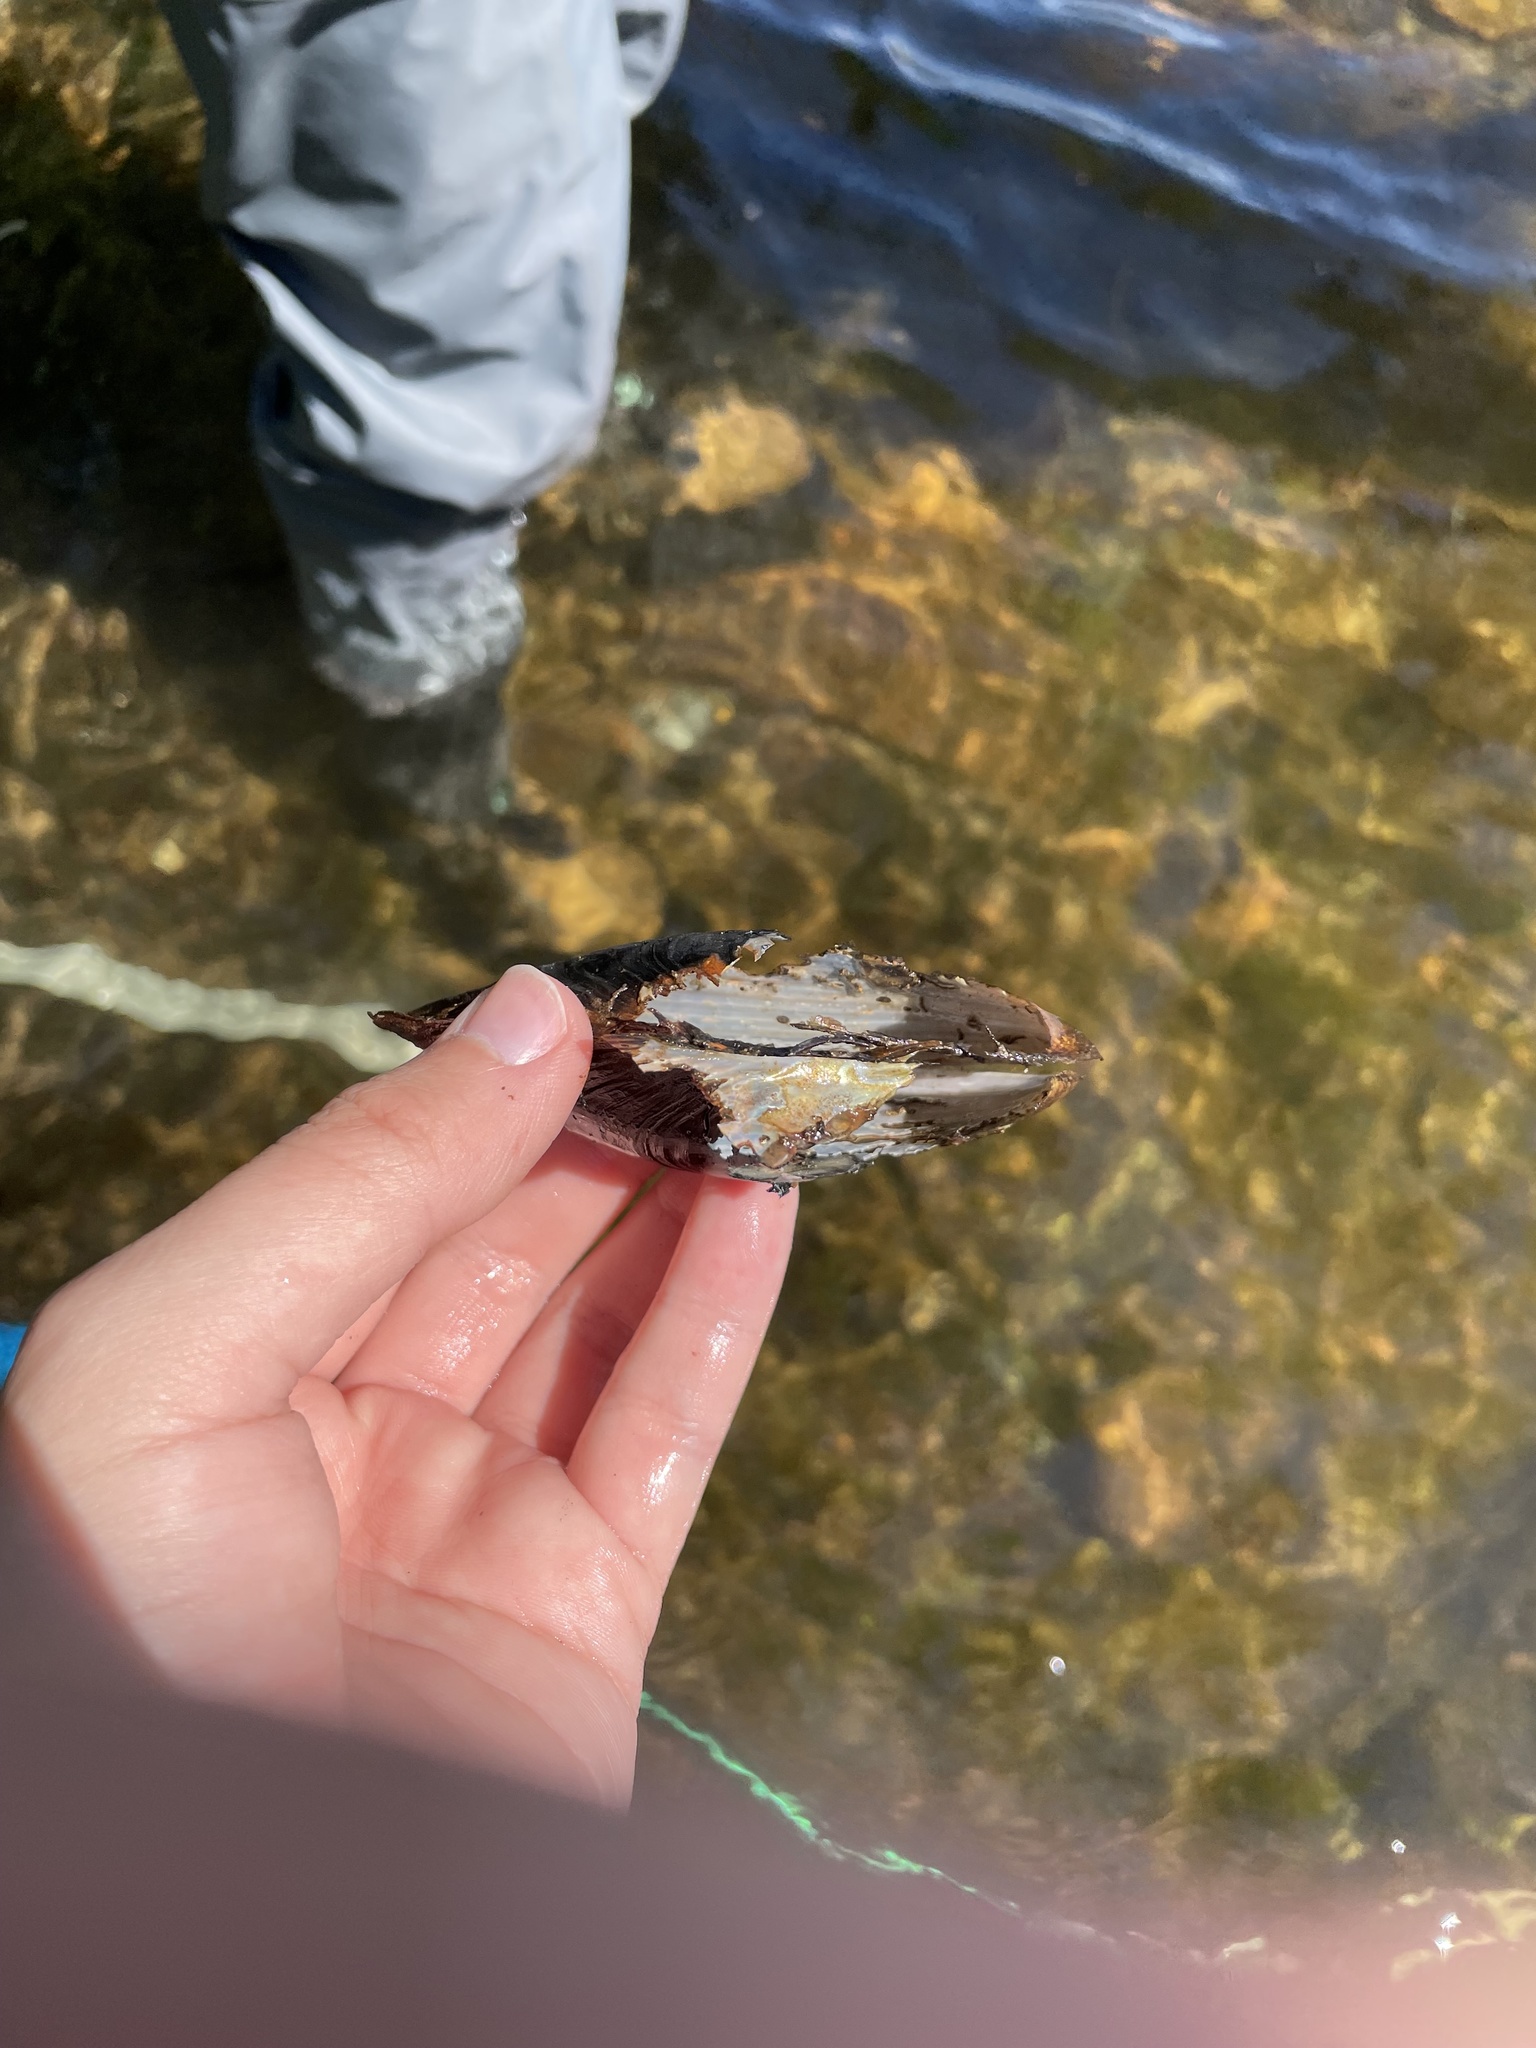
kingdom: Animalia
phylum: Mollusca
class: Bivalvia
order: Unionida
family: Unionidae
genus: Pyganodon
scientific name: Pyganodon cataracta
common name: Eastern floater
